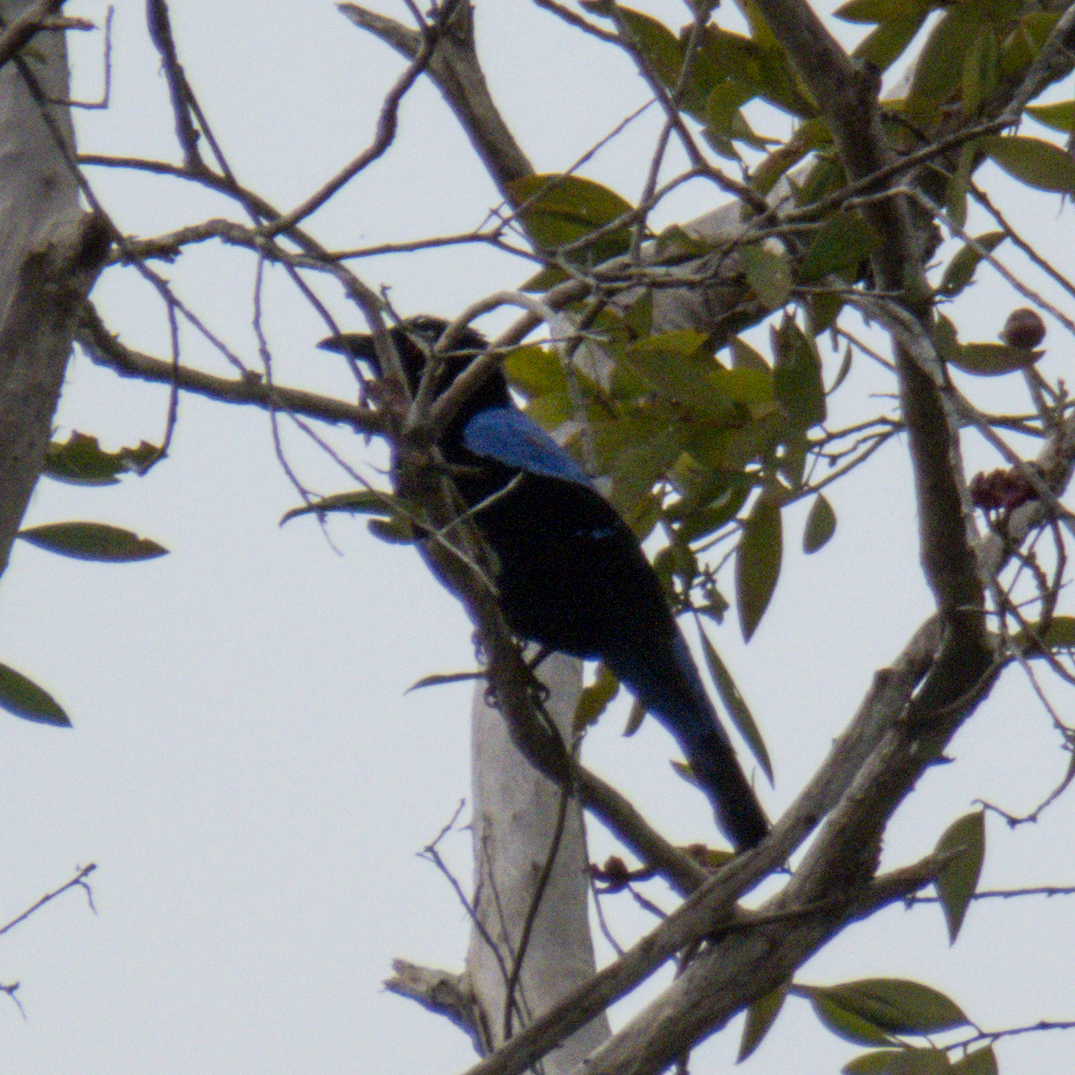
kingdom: Animalia
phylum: Chordata
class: Aves
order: Passeriformes
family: Irenidae
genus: Irena
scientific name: Irena puella
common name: Asian fairy-bluebird
